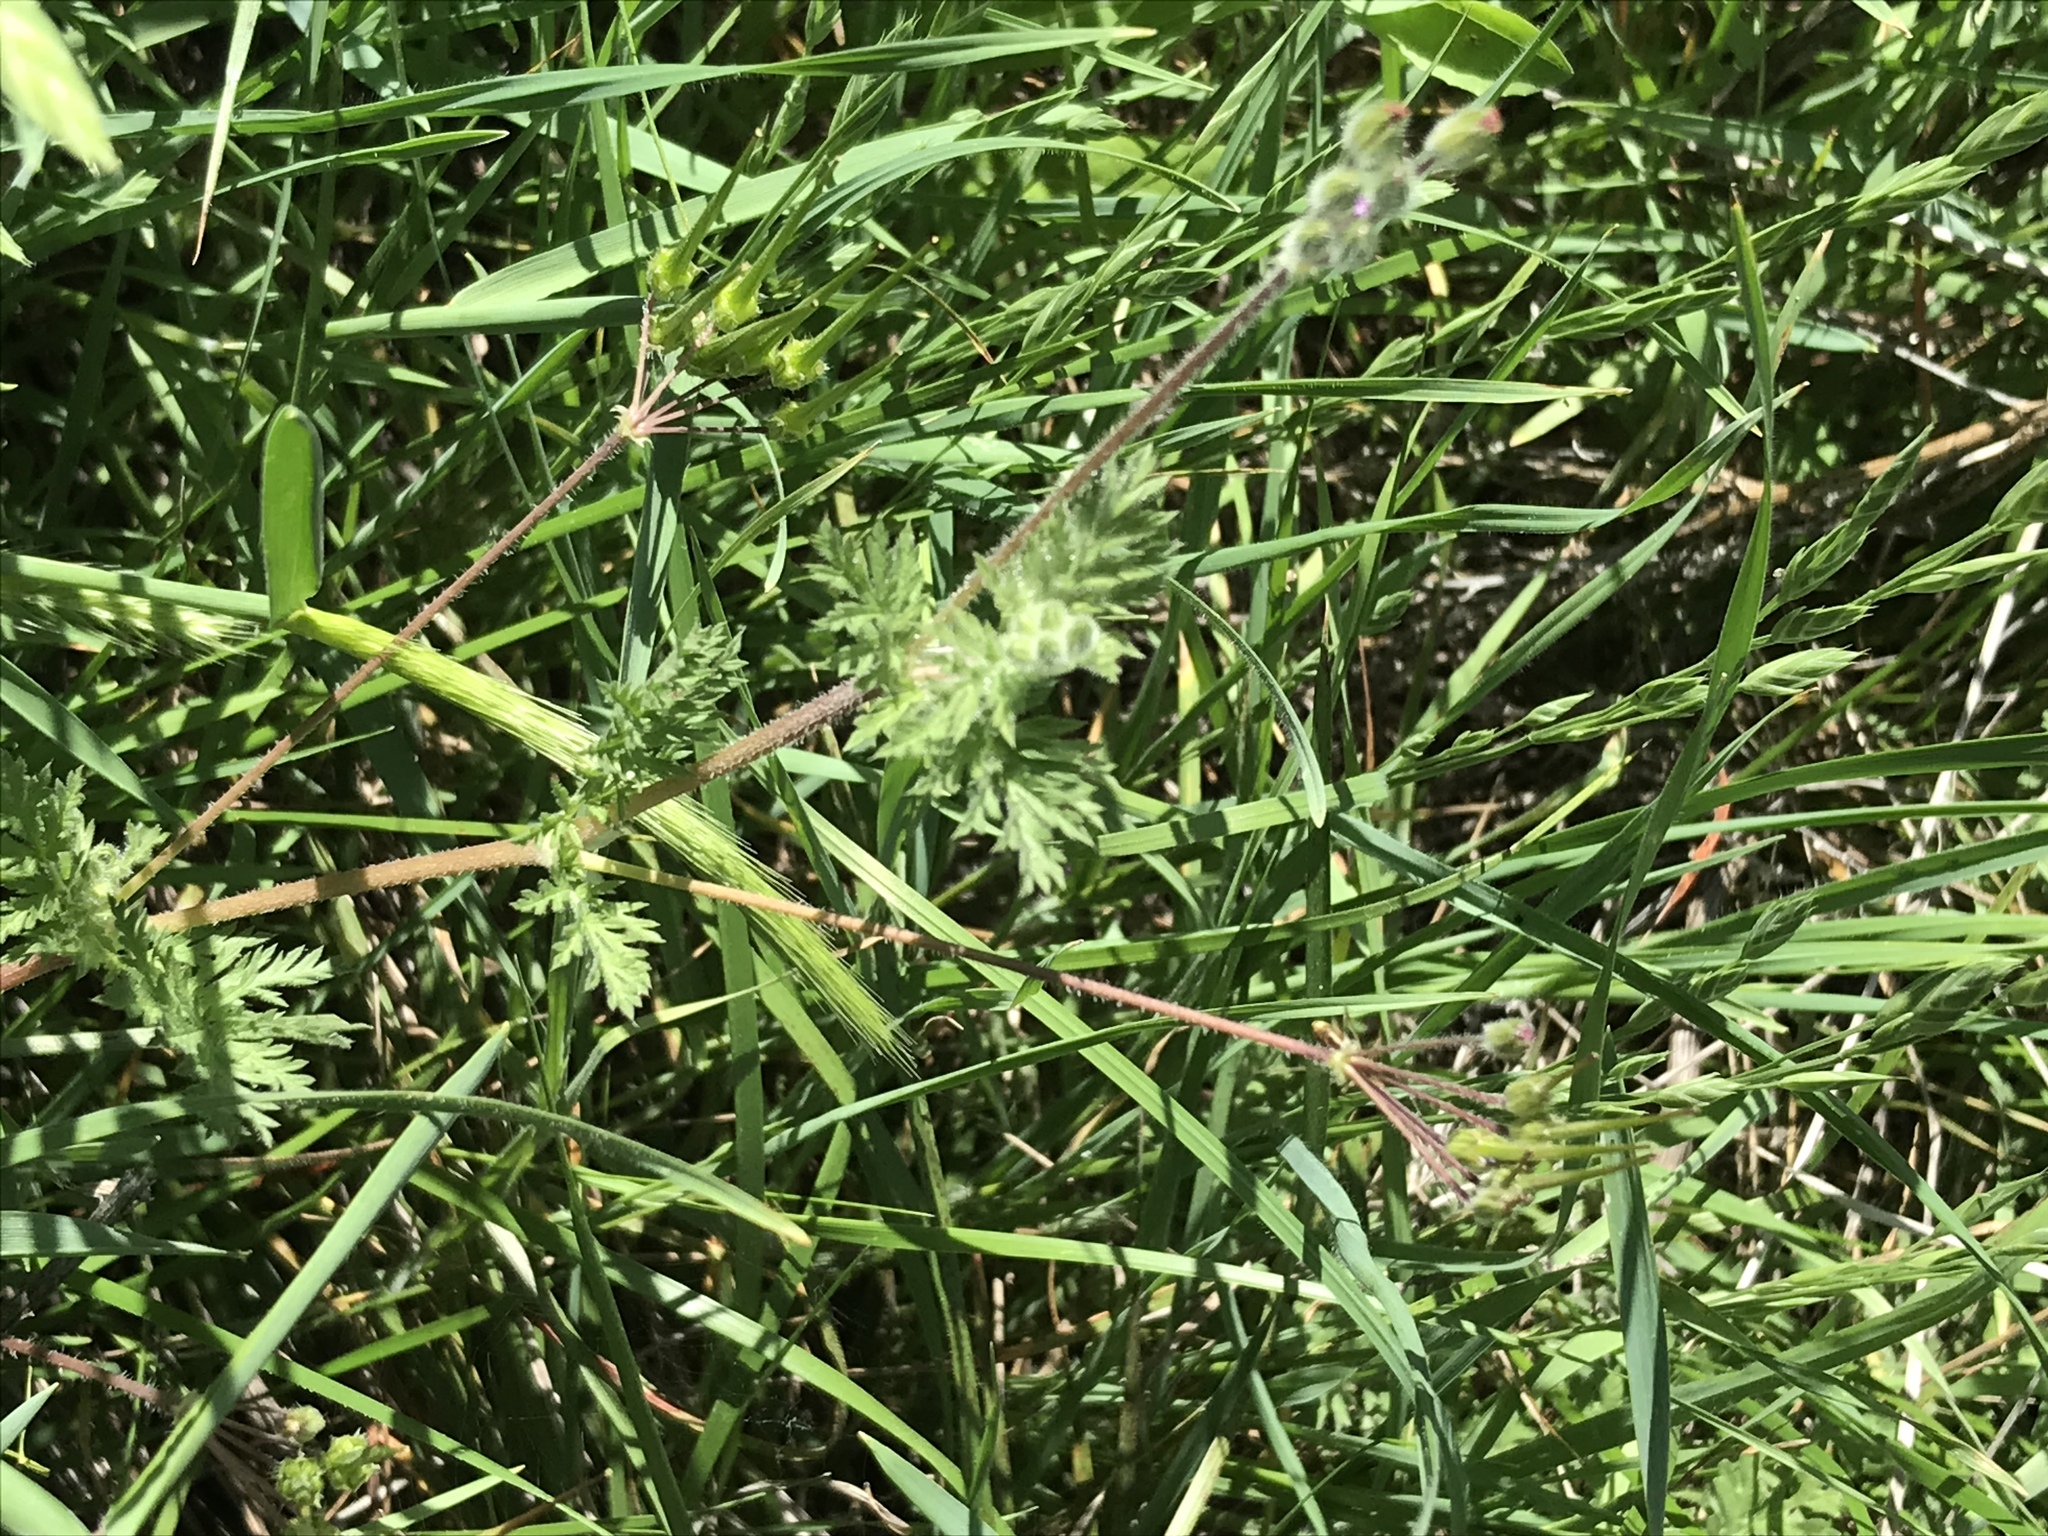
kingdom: Plantae
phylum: Tracheophyta
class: Magnoliopsida
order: Geraniales
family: Geraniaceae
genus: Erodium
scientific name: Erodium cicutarium
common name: Common stork's-bill
